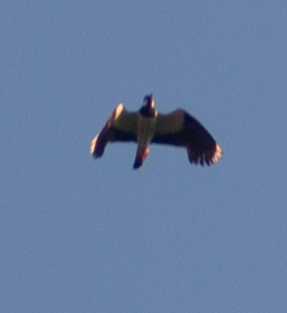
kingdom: Animalia
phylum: Chordata
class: Aves
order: Charadriiformes
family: Charadriidae
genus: Vanellus
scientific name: Vanellus vanellus
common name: Northern lapwing
